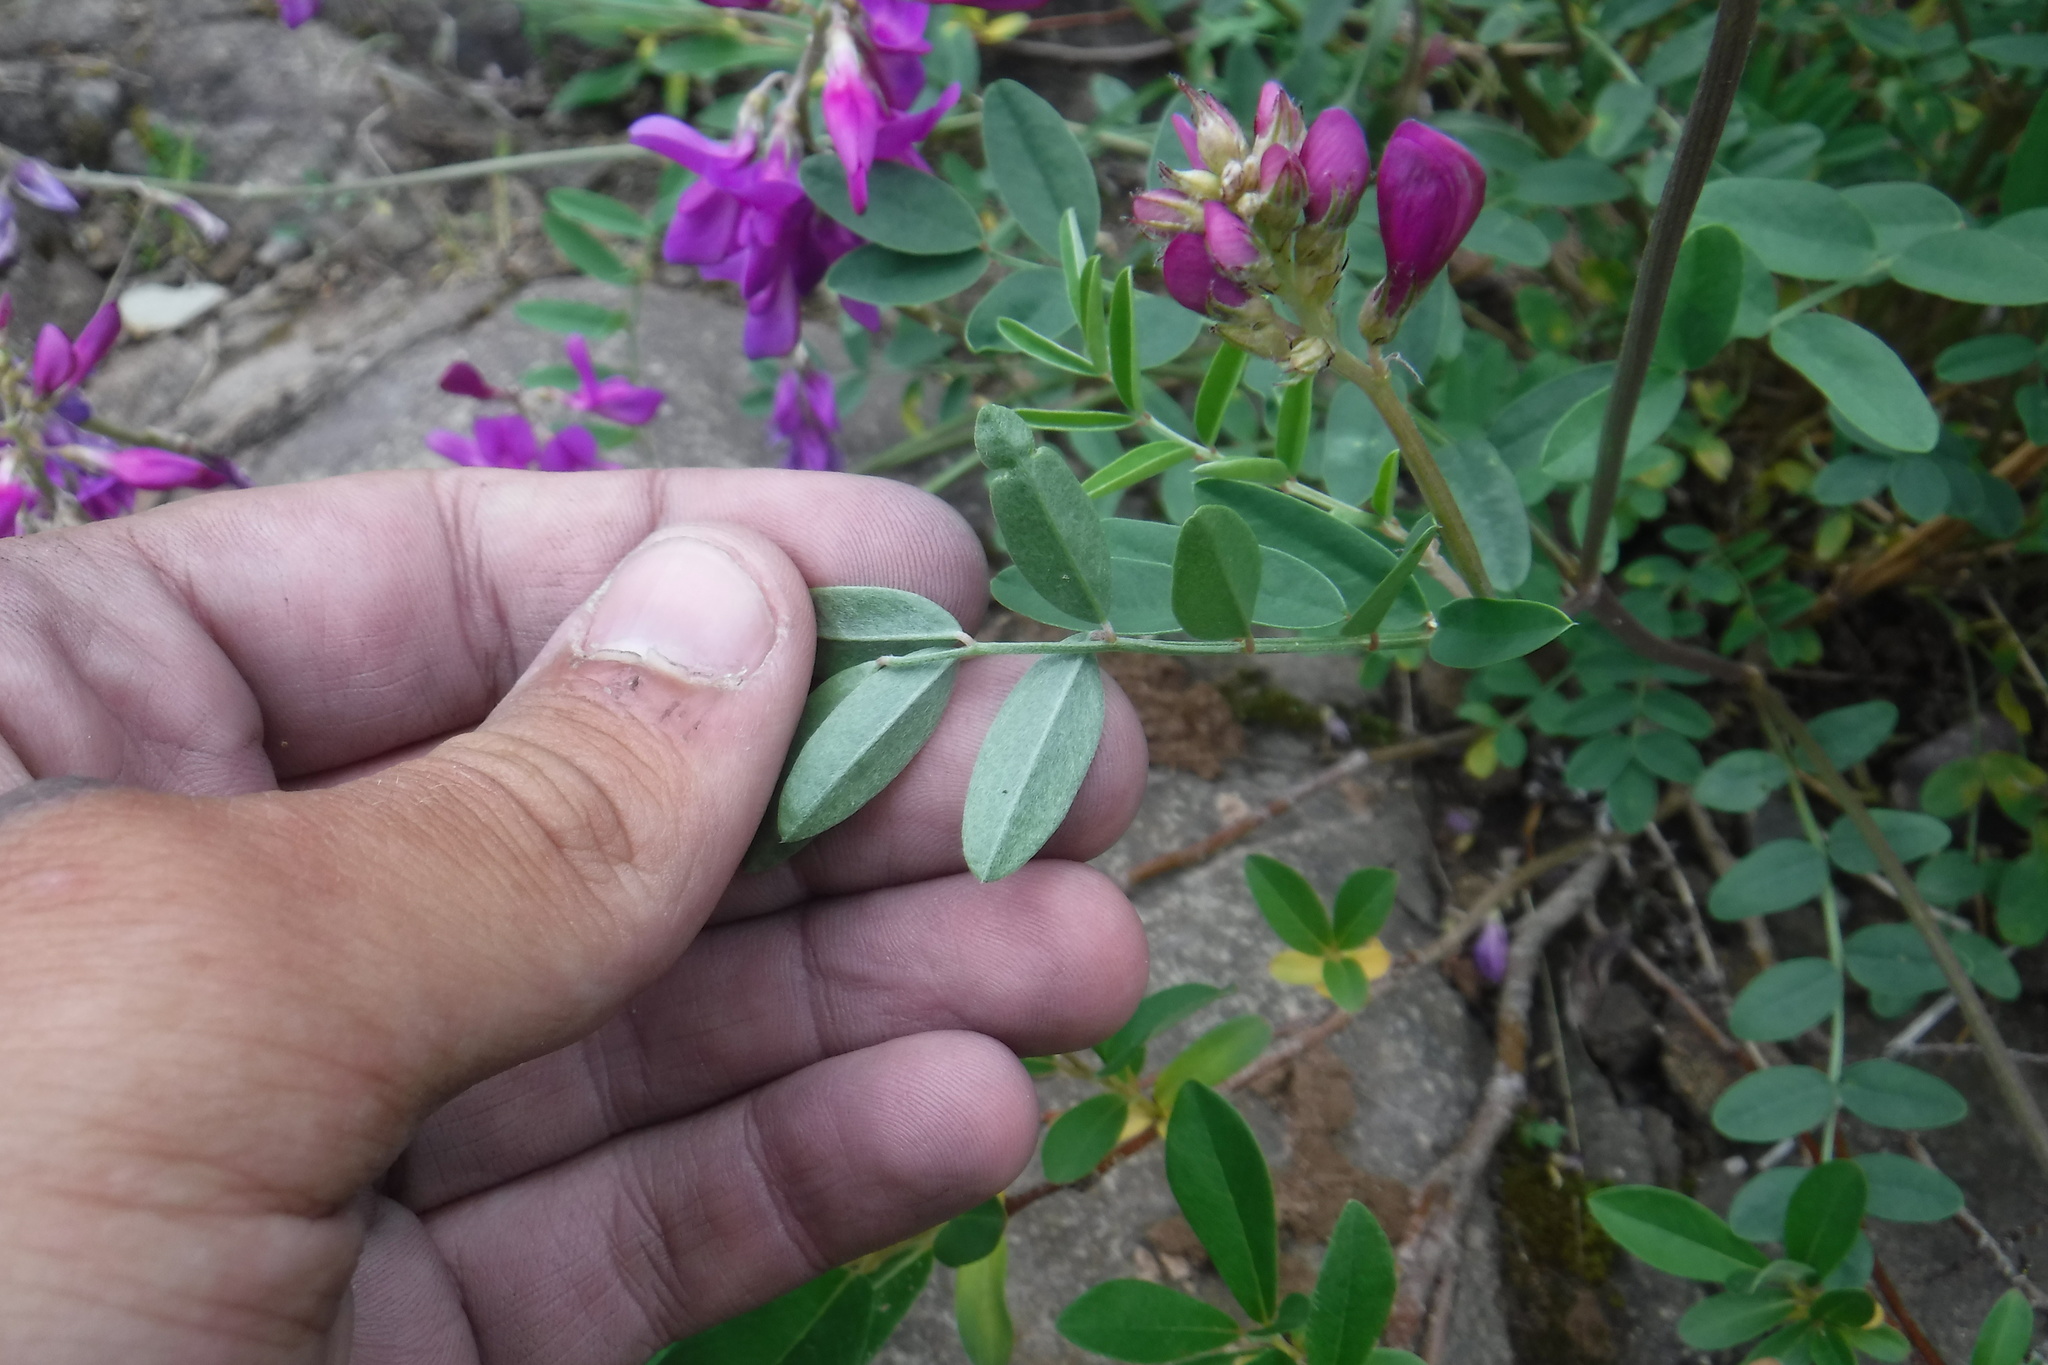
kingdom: Plantae
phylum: Tracheophyta
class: Magnoliopsida
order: Fabales
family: Fabaceae
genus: Hedysarum
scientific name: Hedysarum boreale
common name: Northern sweet-vetch
